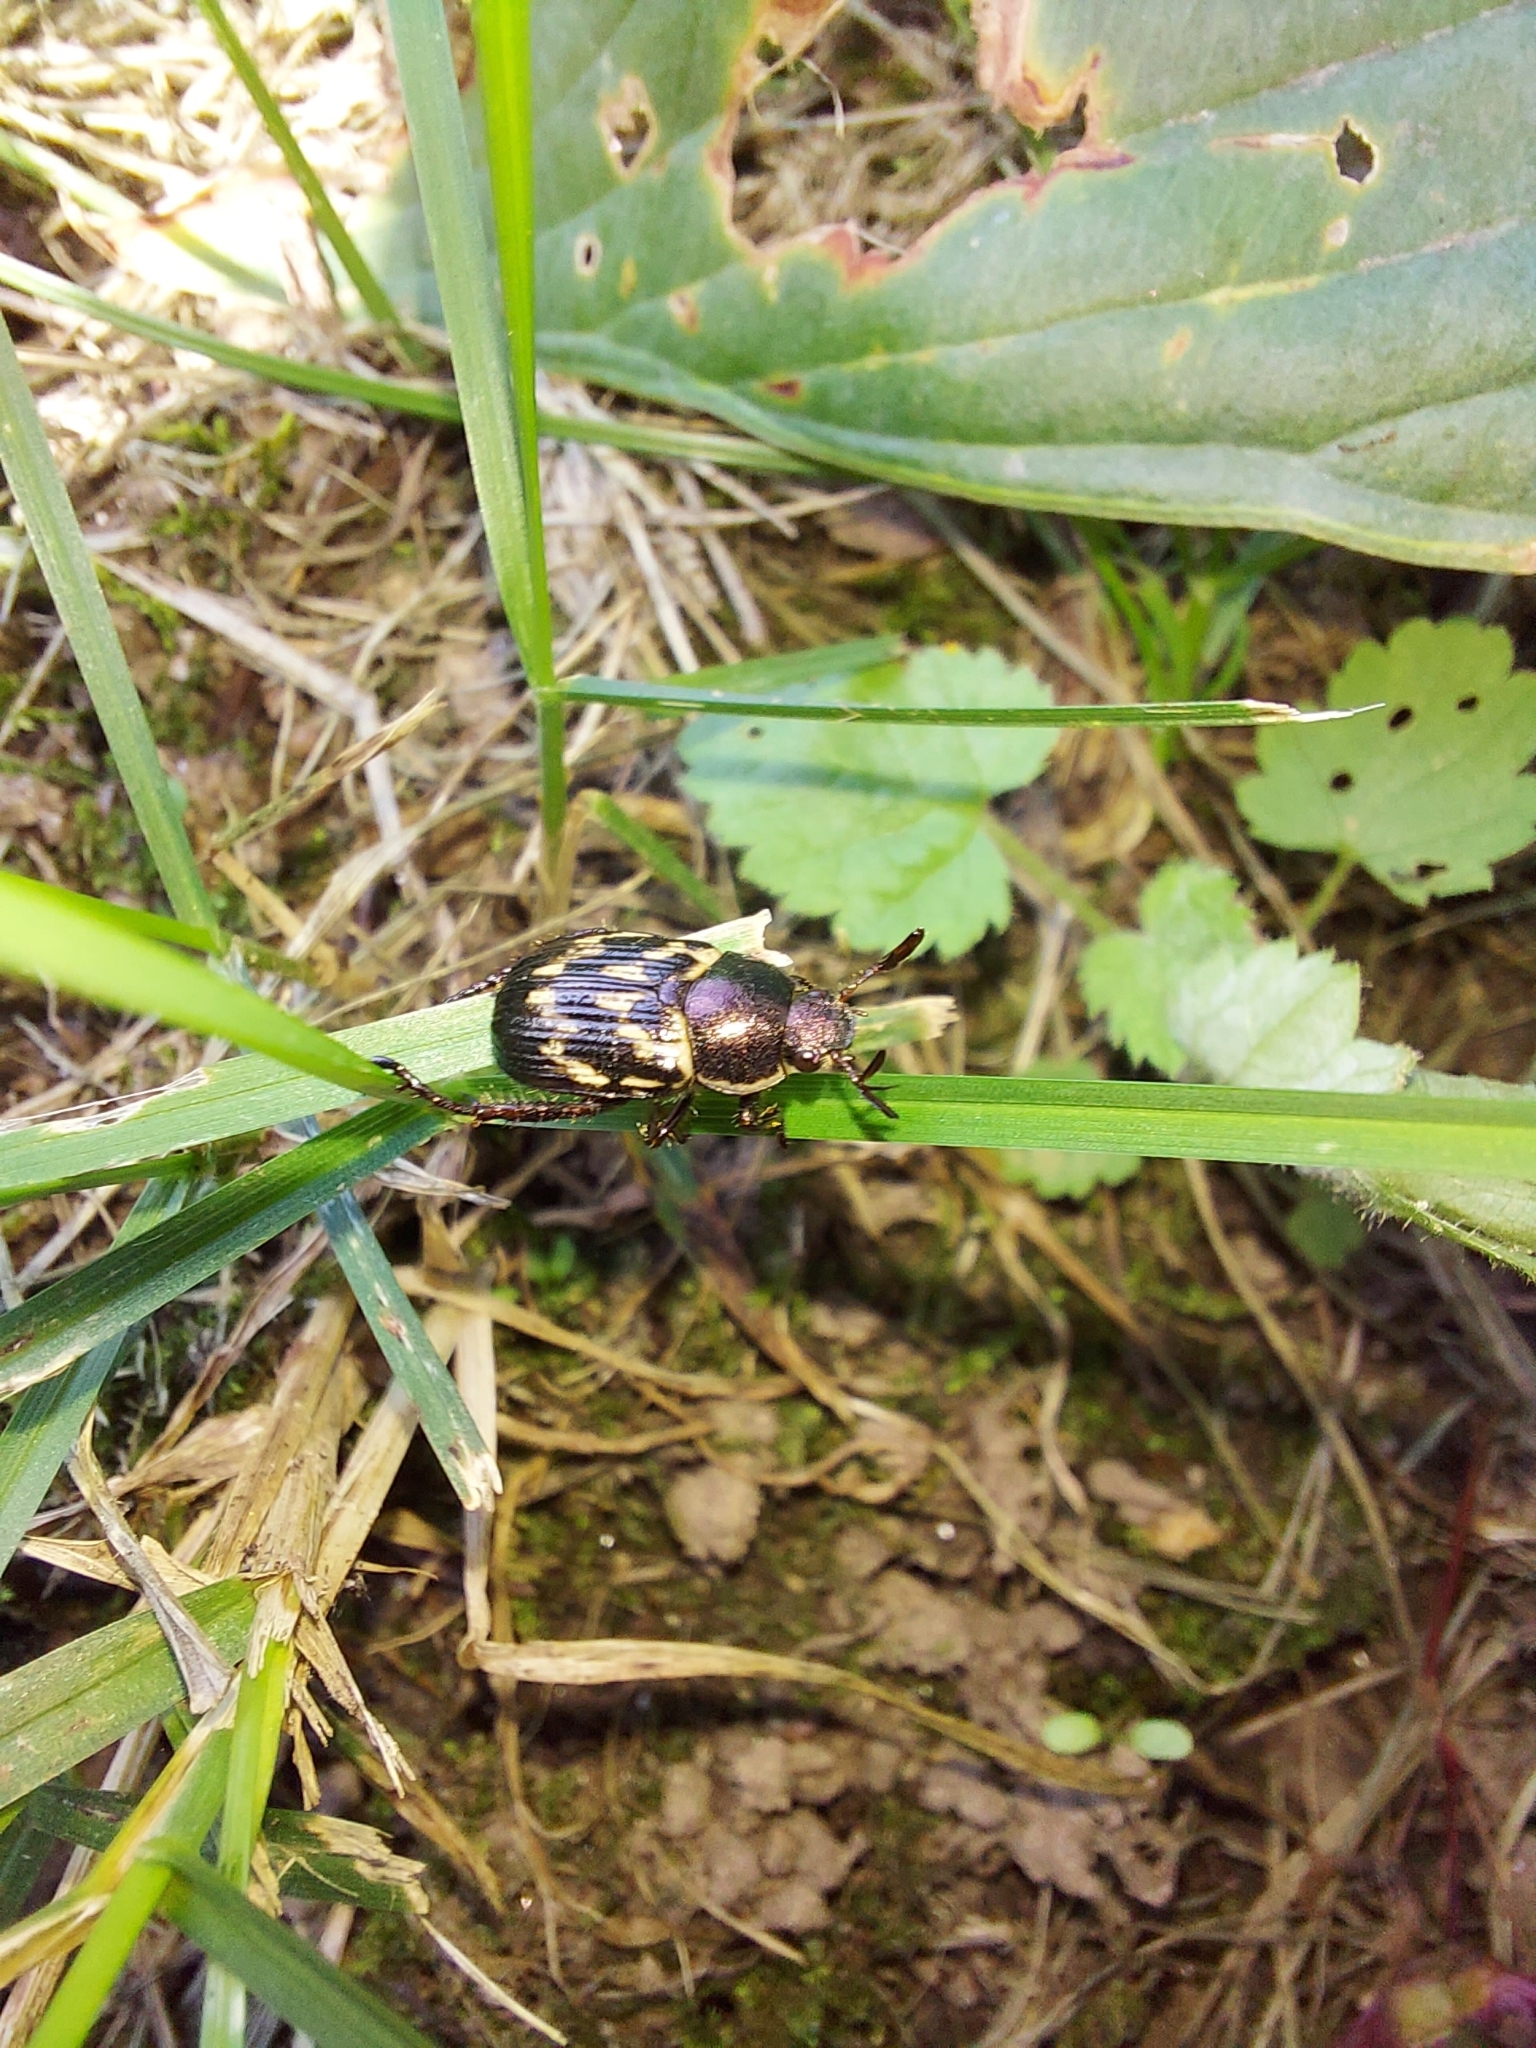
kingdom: Animalia
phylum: Arthropoda
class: Insecta
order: Coleoptera
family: Scarabaeidae
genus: Exomala
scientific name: Exomala orientalis
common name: Oriental beetle
